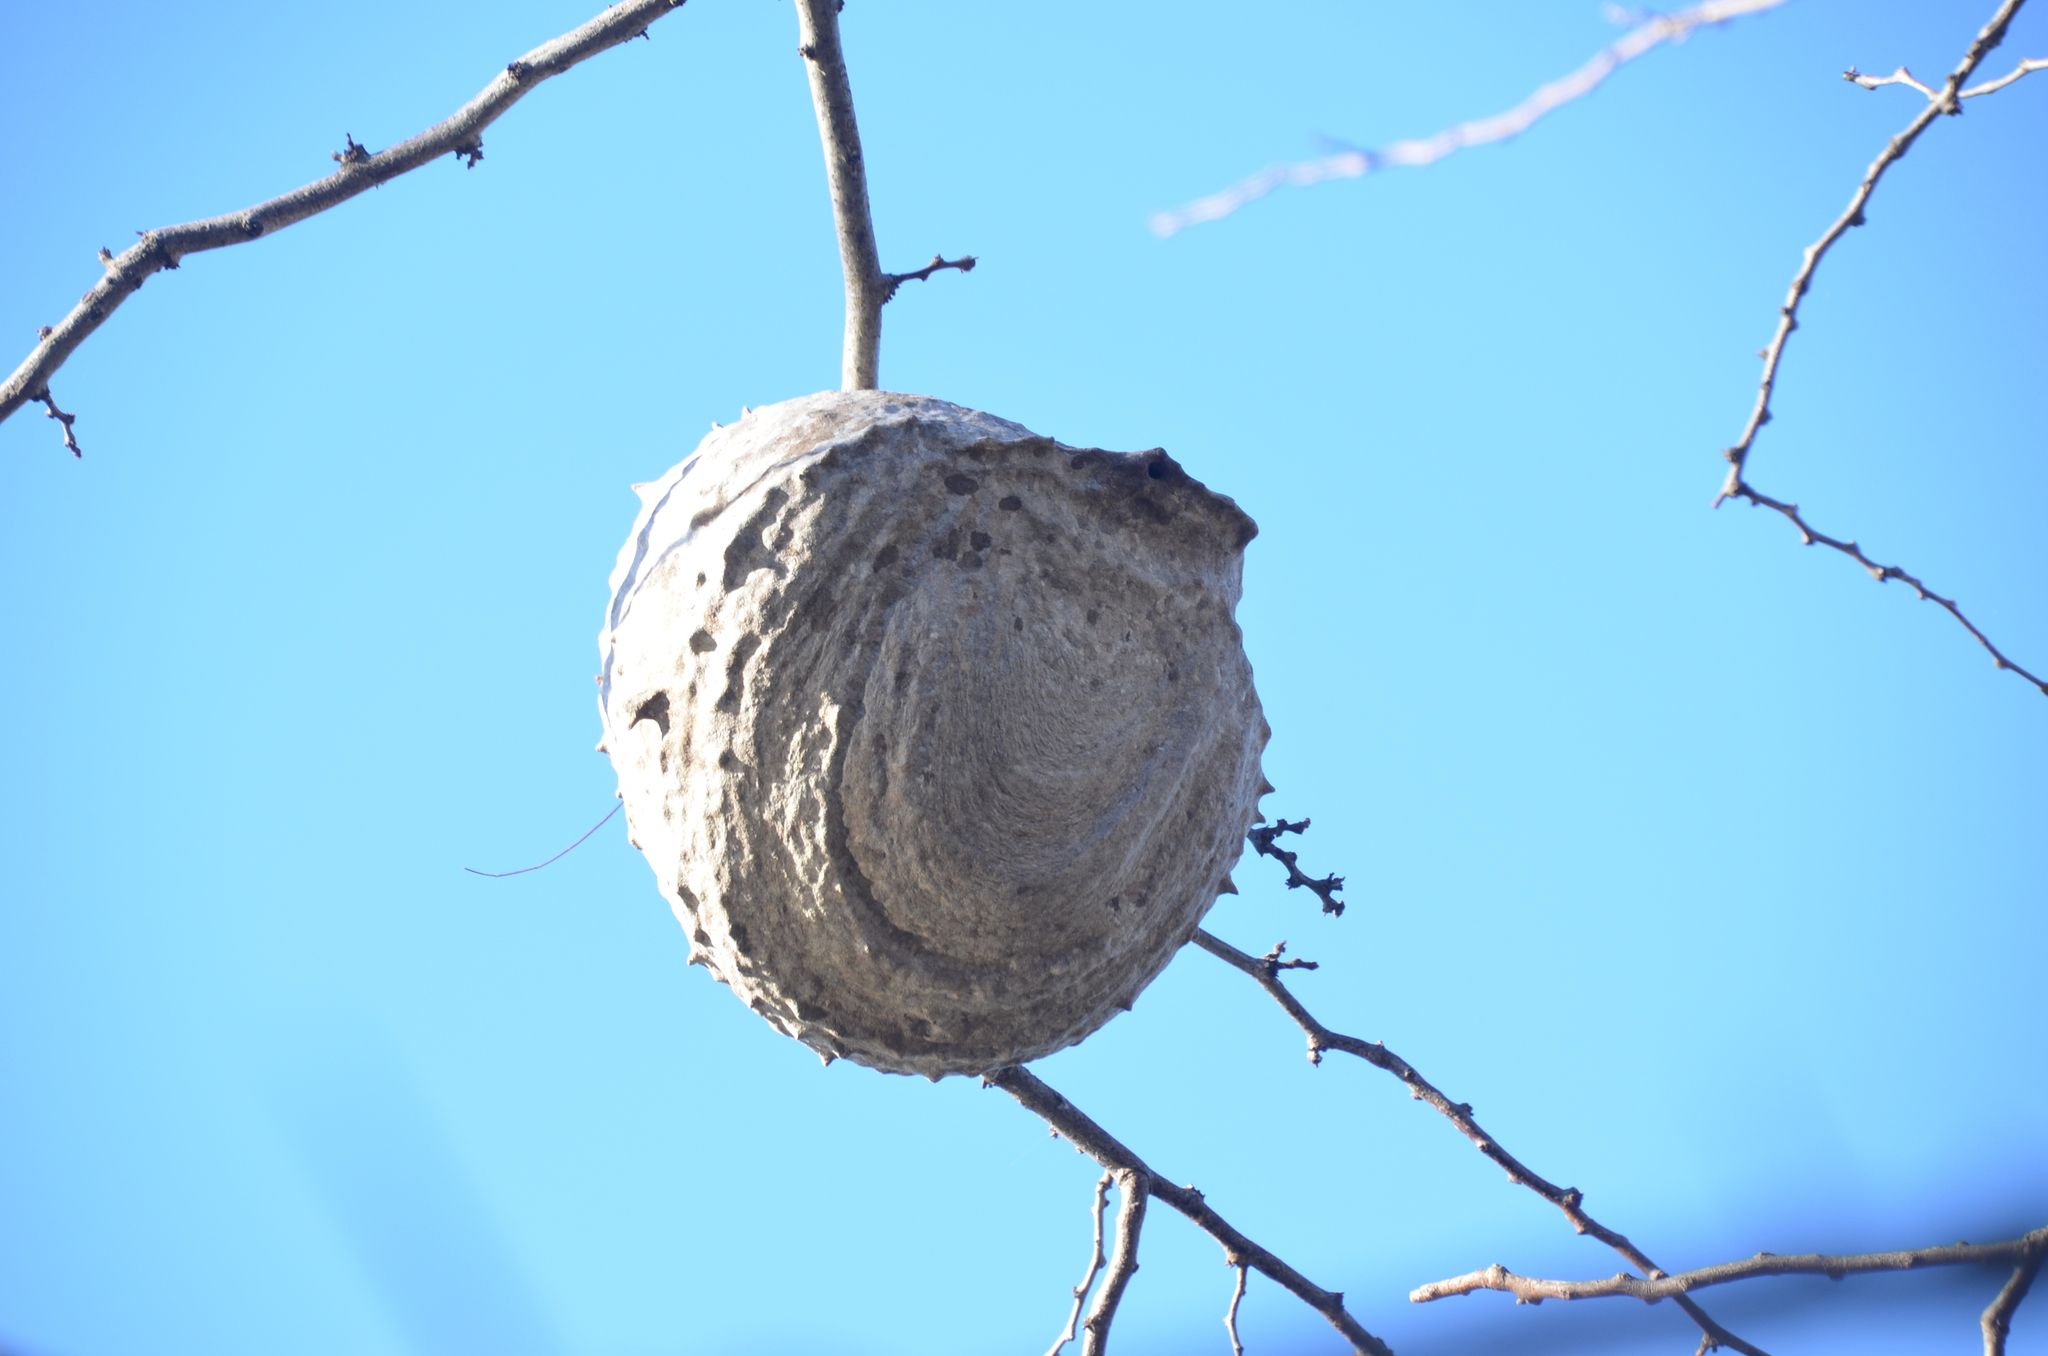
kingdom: Animalia
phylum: Arthropoda
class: Insecta
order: Hymenoptera
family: Eumenidae
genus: Polybia
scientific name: Polybia scutellaris
